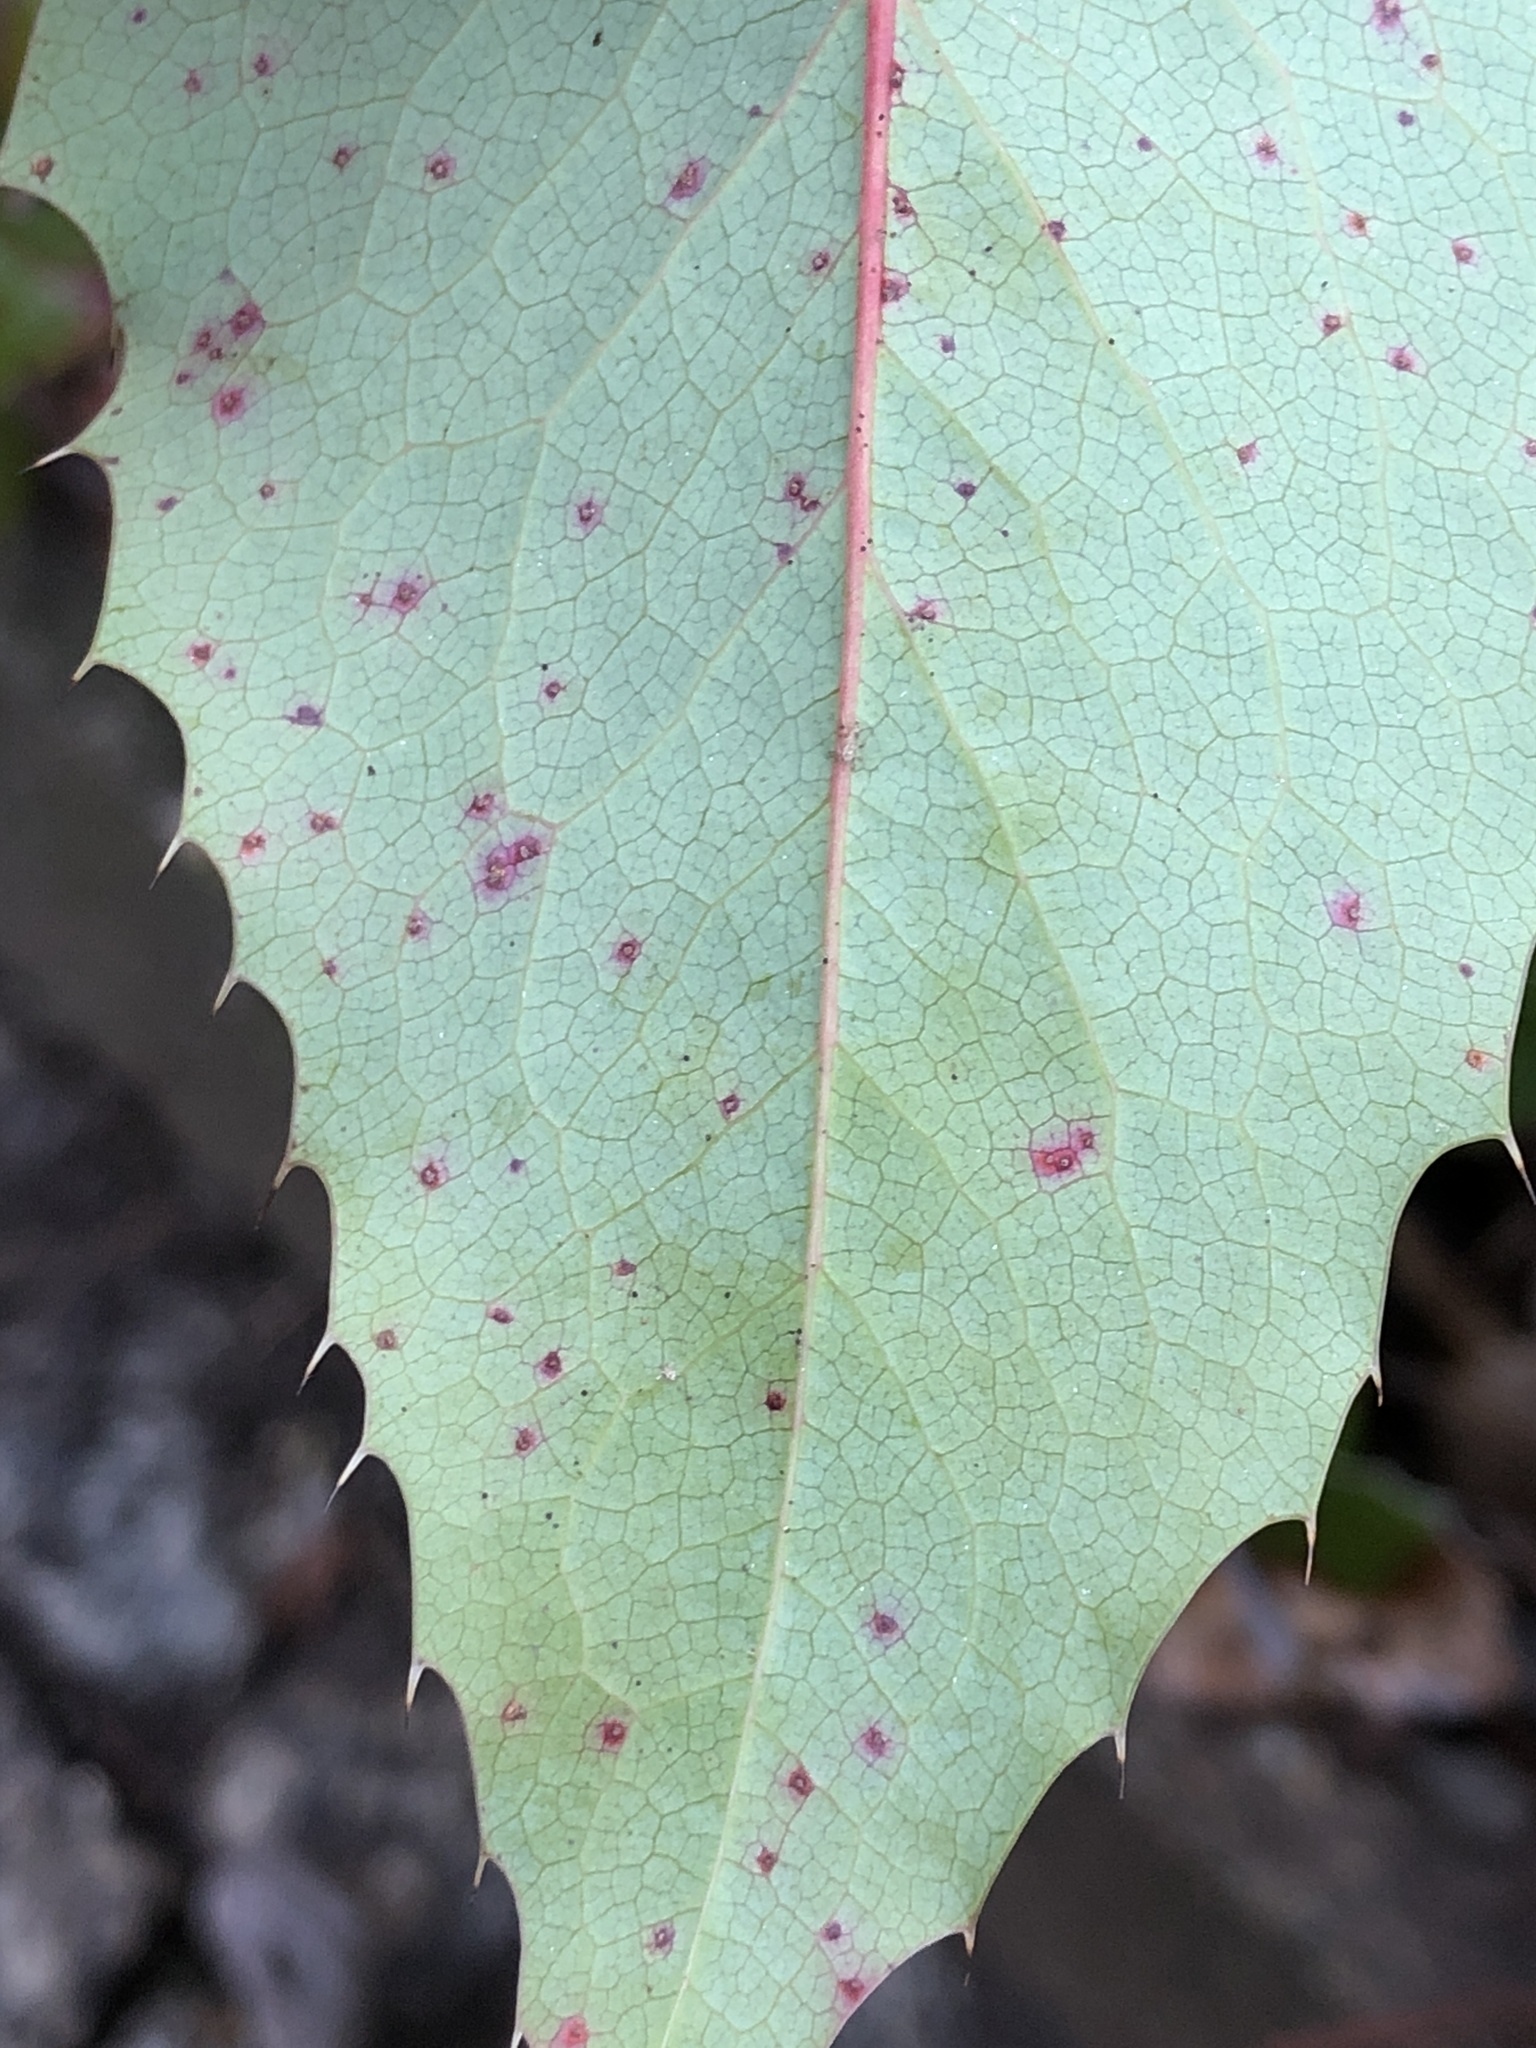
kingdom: Fungi
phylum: Basidiomycota
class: Pucciniomycetes
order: Pucciniales
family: Pucciniaceae
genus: Cumminsiella
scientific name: Cumminsiella mirabilissima
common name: Mahonia rust
